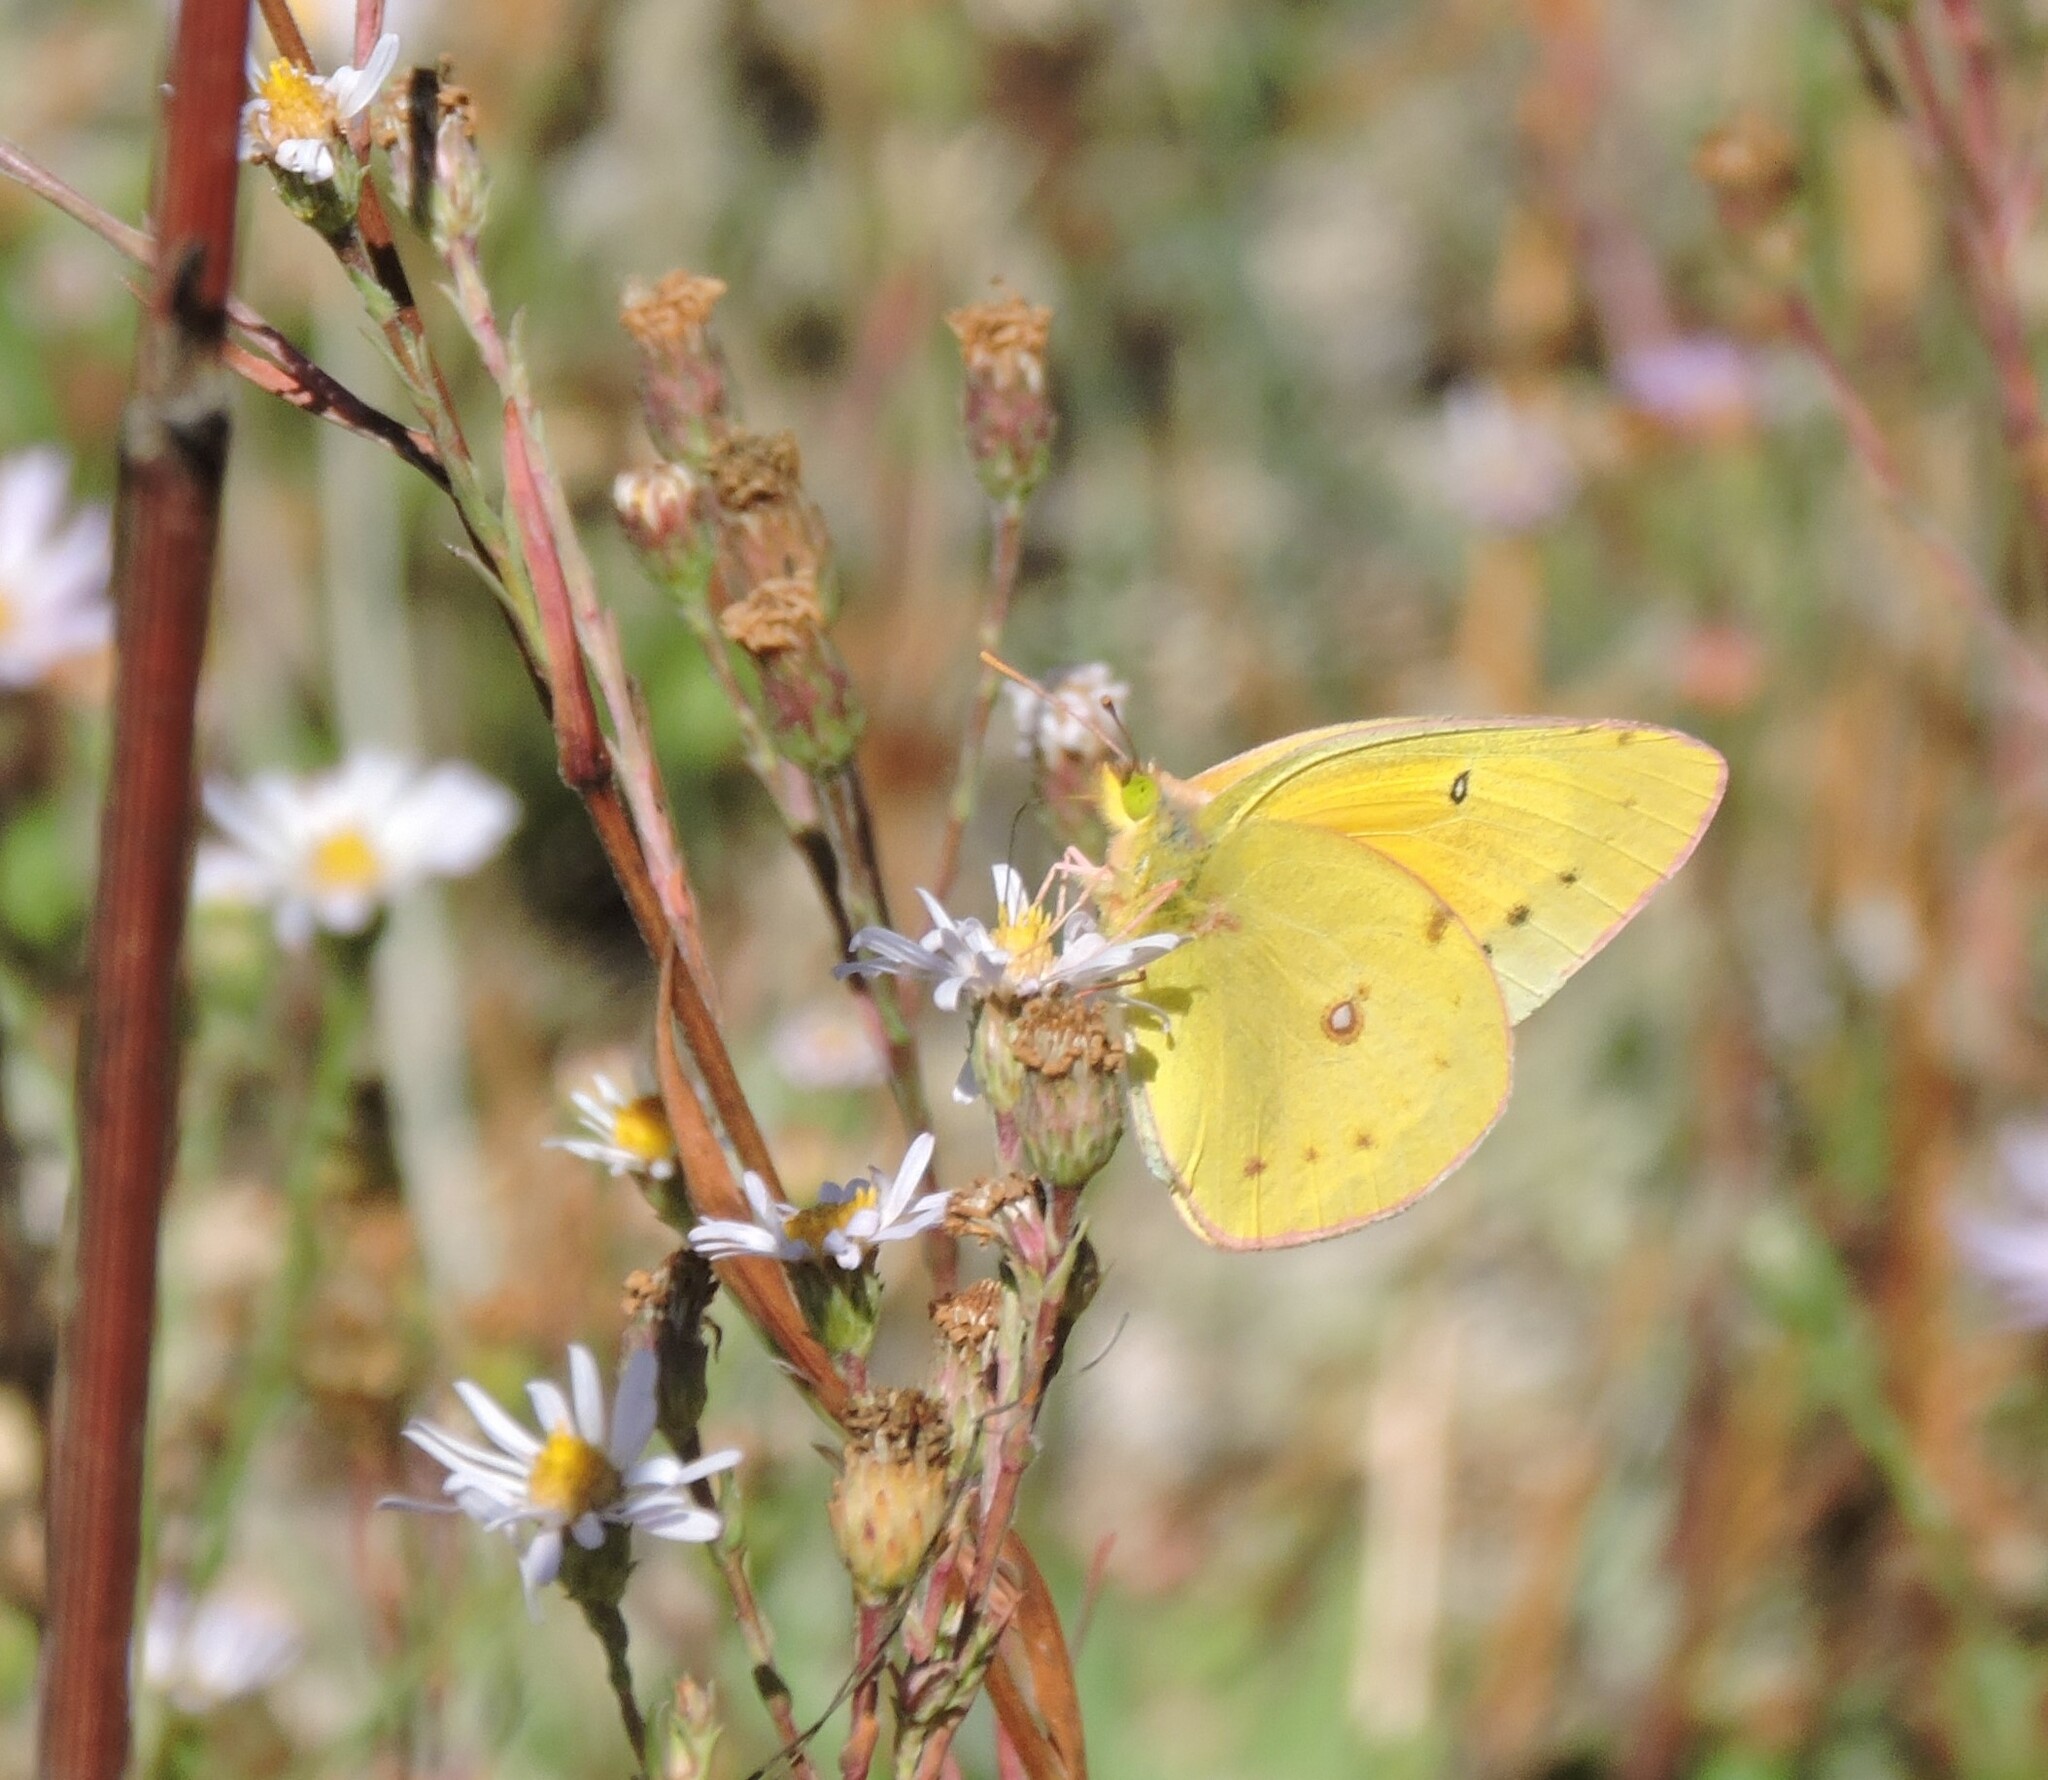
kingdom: Animalia
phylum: Arthropoda
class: Insecta
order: Lepidoptera
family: Pieridae
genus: Colias
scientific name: Colias eurytheme
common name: Alfalfa butterfly
